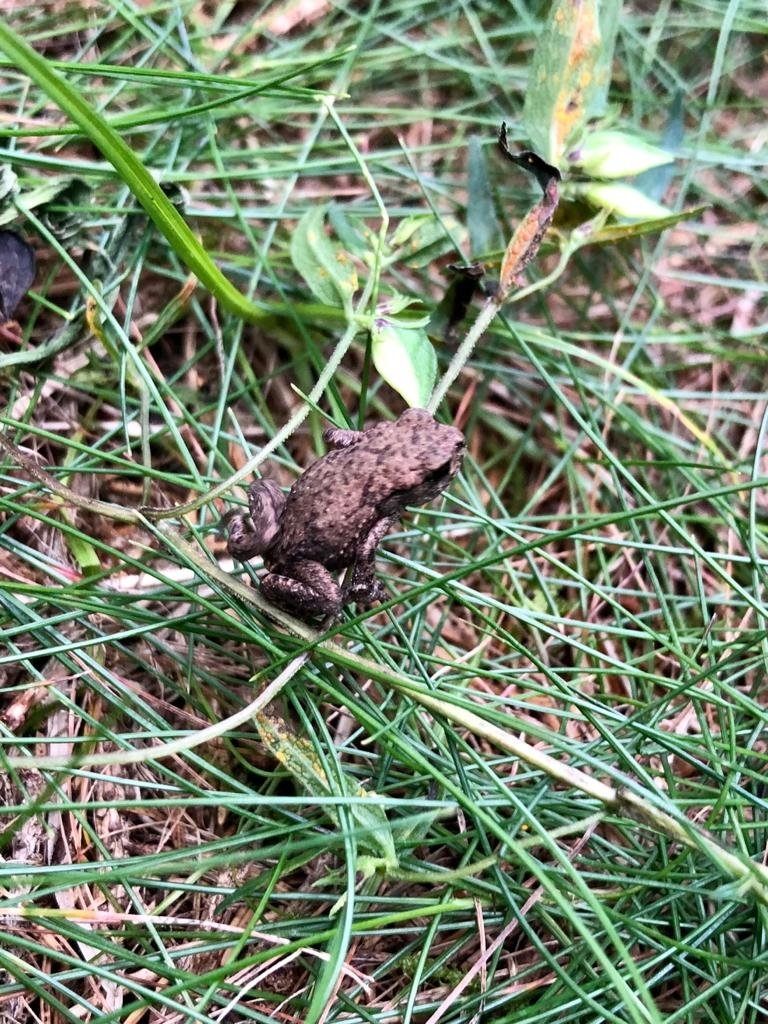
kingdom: Animalia
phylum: Chordata
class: Amphibia
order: Anura
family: Bufonidae
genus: Bufo
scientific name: Bufo bufo
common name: Common toad
